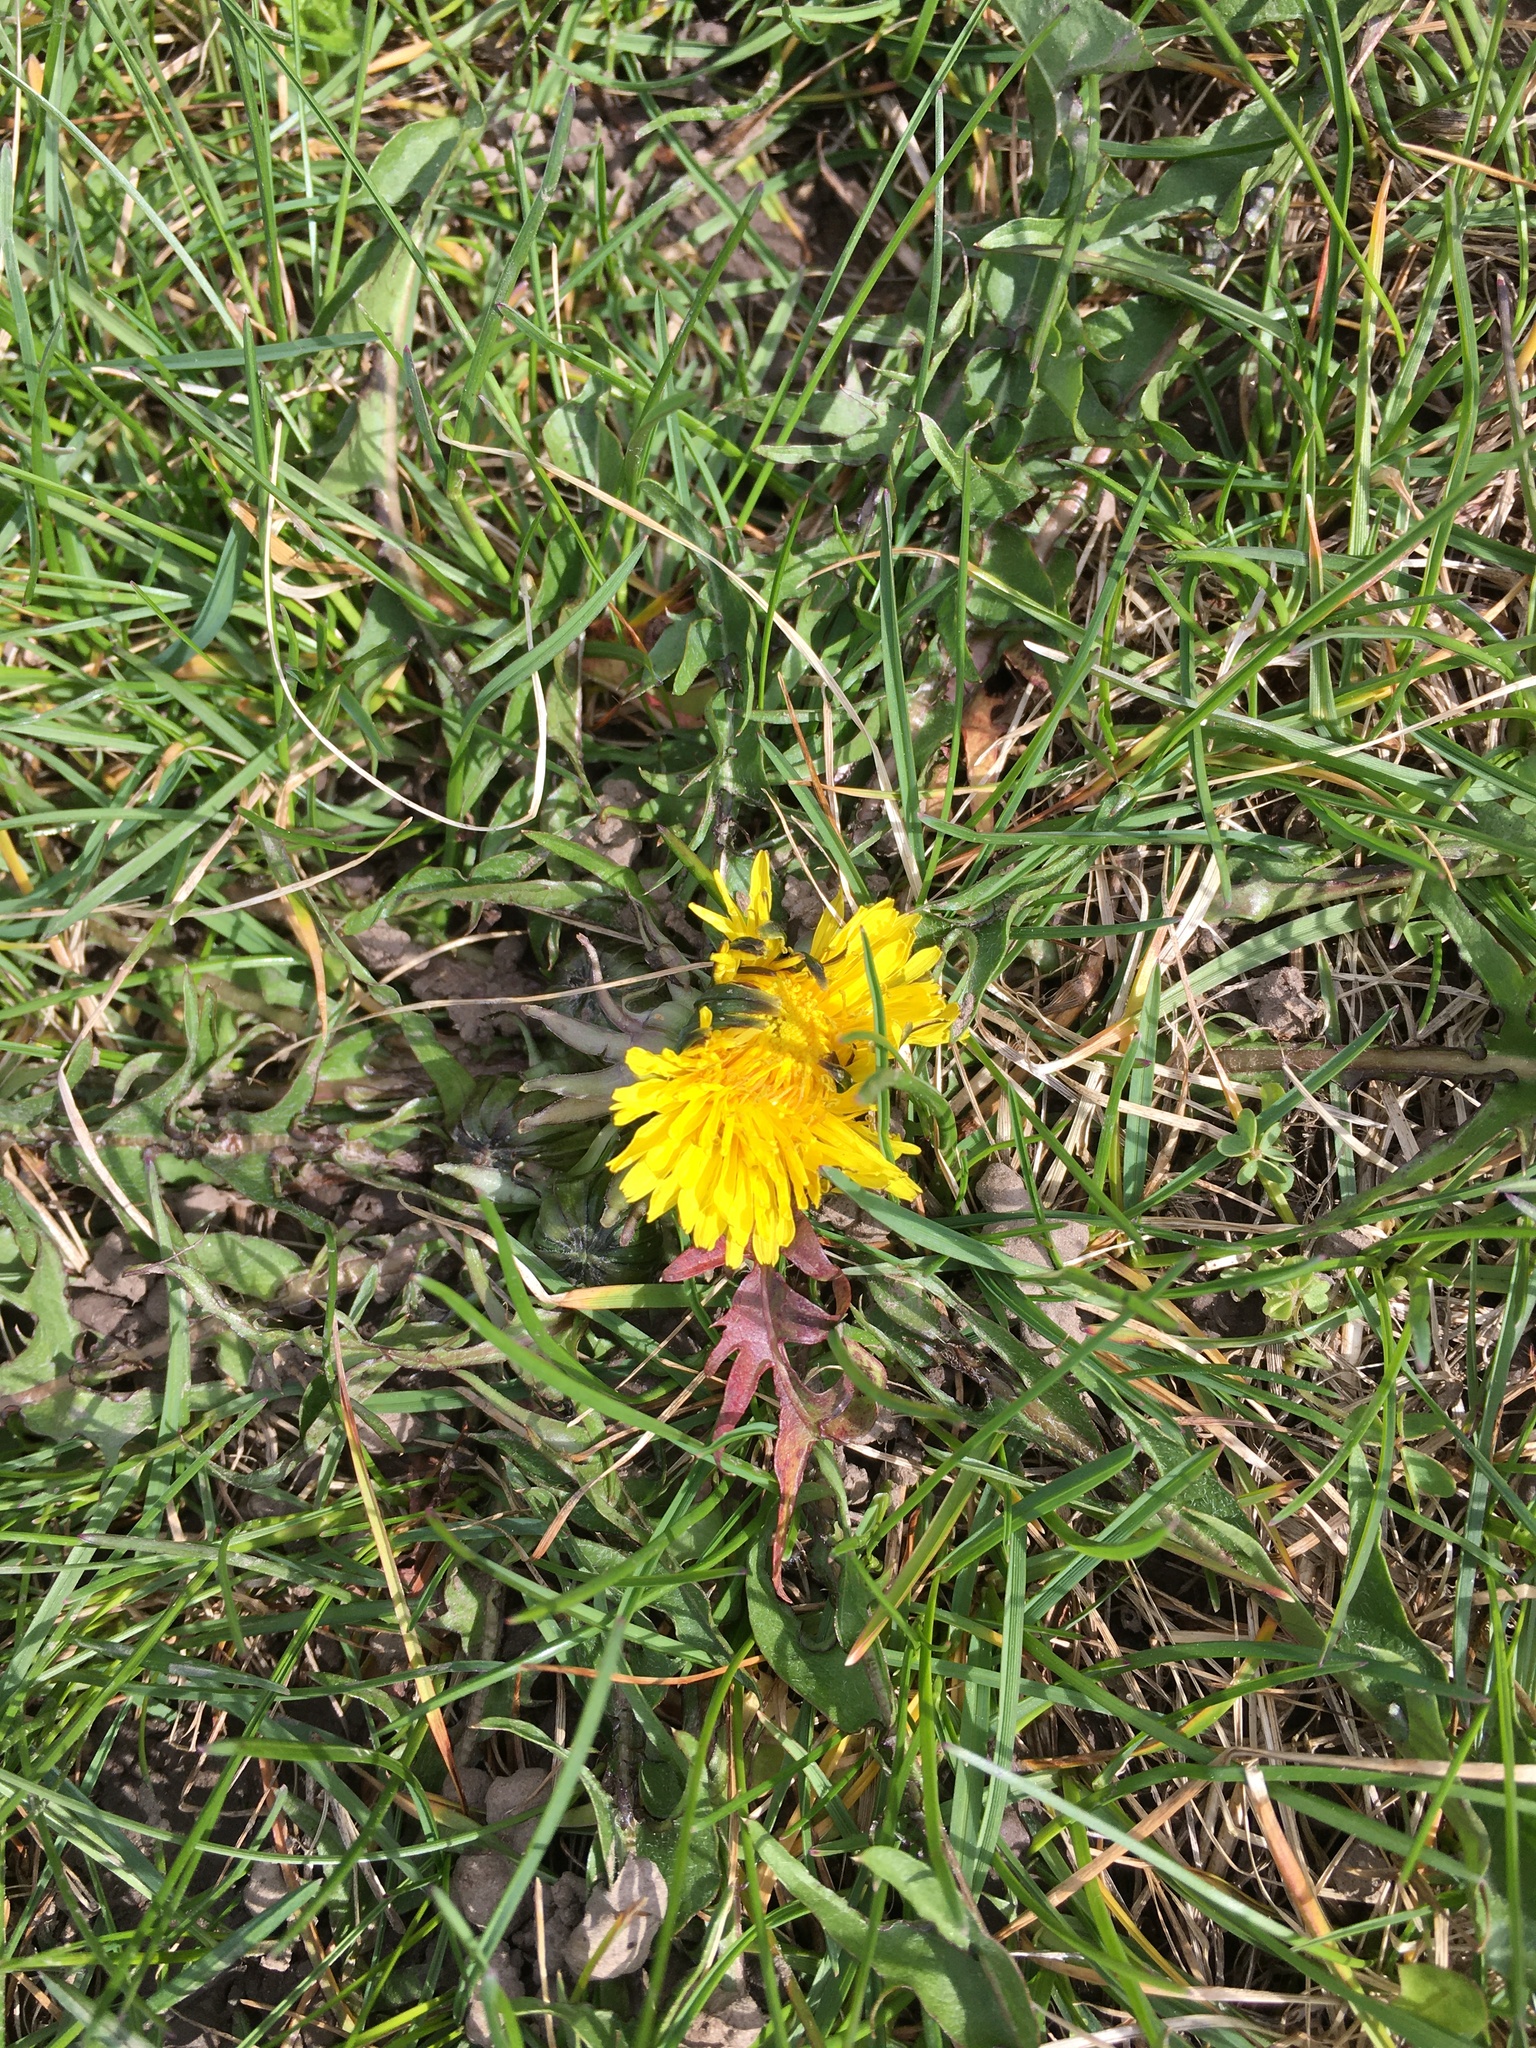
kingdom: Plantae
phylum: Tracheophyta
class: Magnoliopsida
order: Asterales
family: Asteraceae
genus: Taraxacum
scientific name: Taraxacum officinale
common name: Common dandelion
